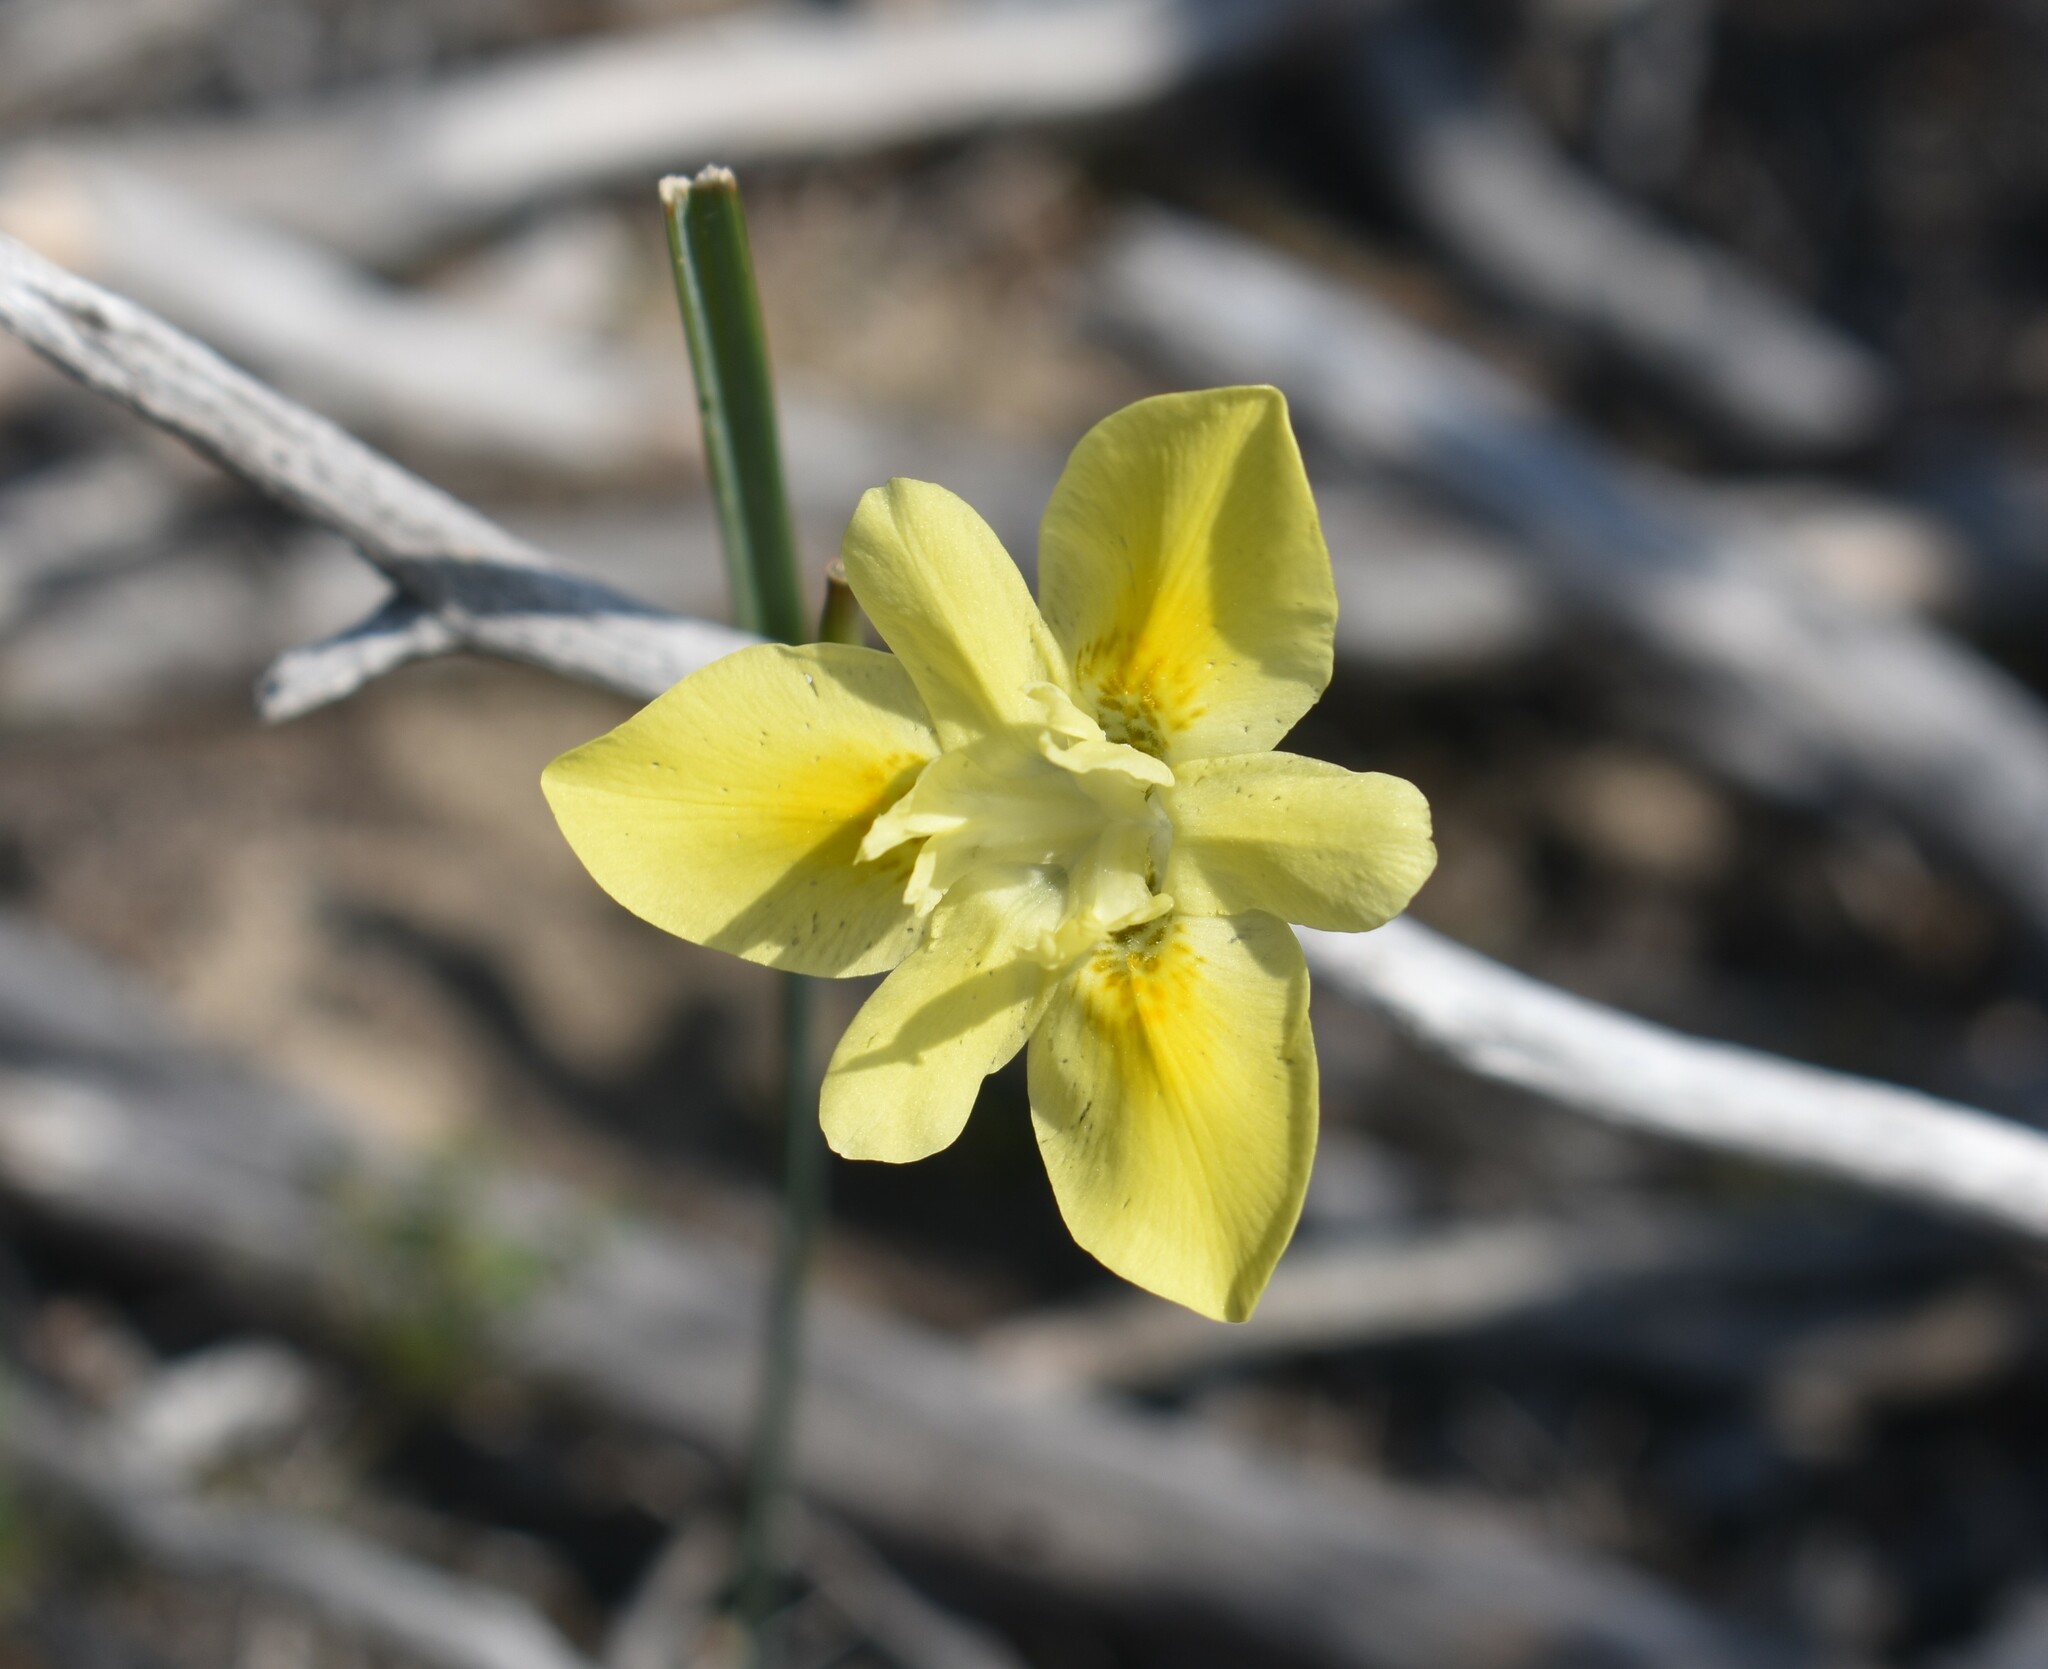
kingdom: Plantae
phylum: Tracheophyta
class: Liliopsida
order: Asparagales
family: Iridaceae
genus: Moraea
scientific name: Moraea fugax
